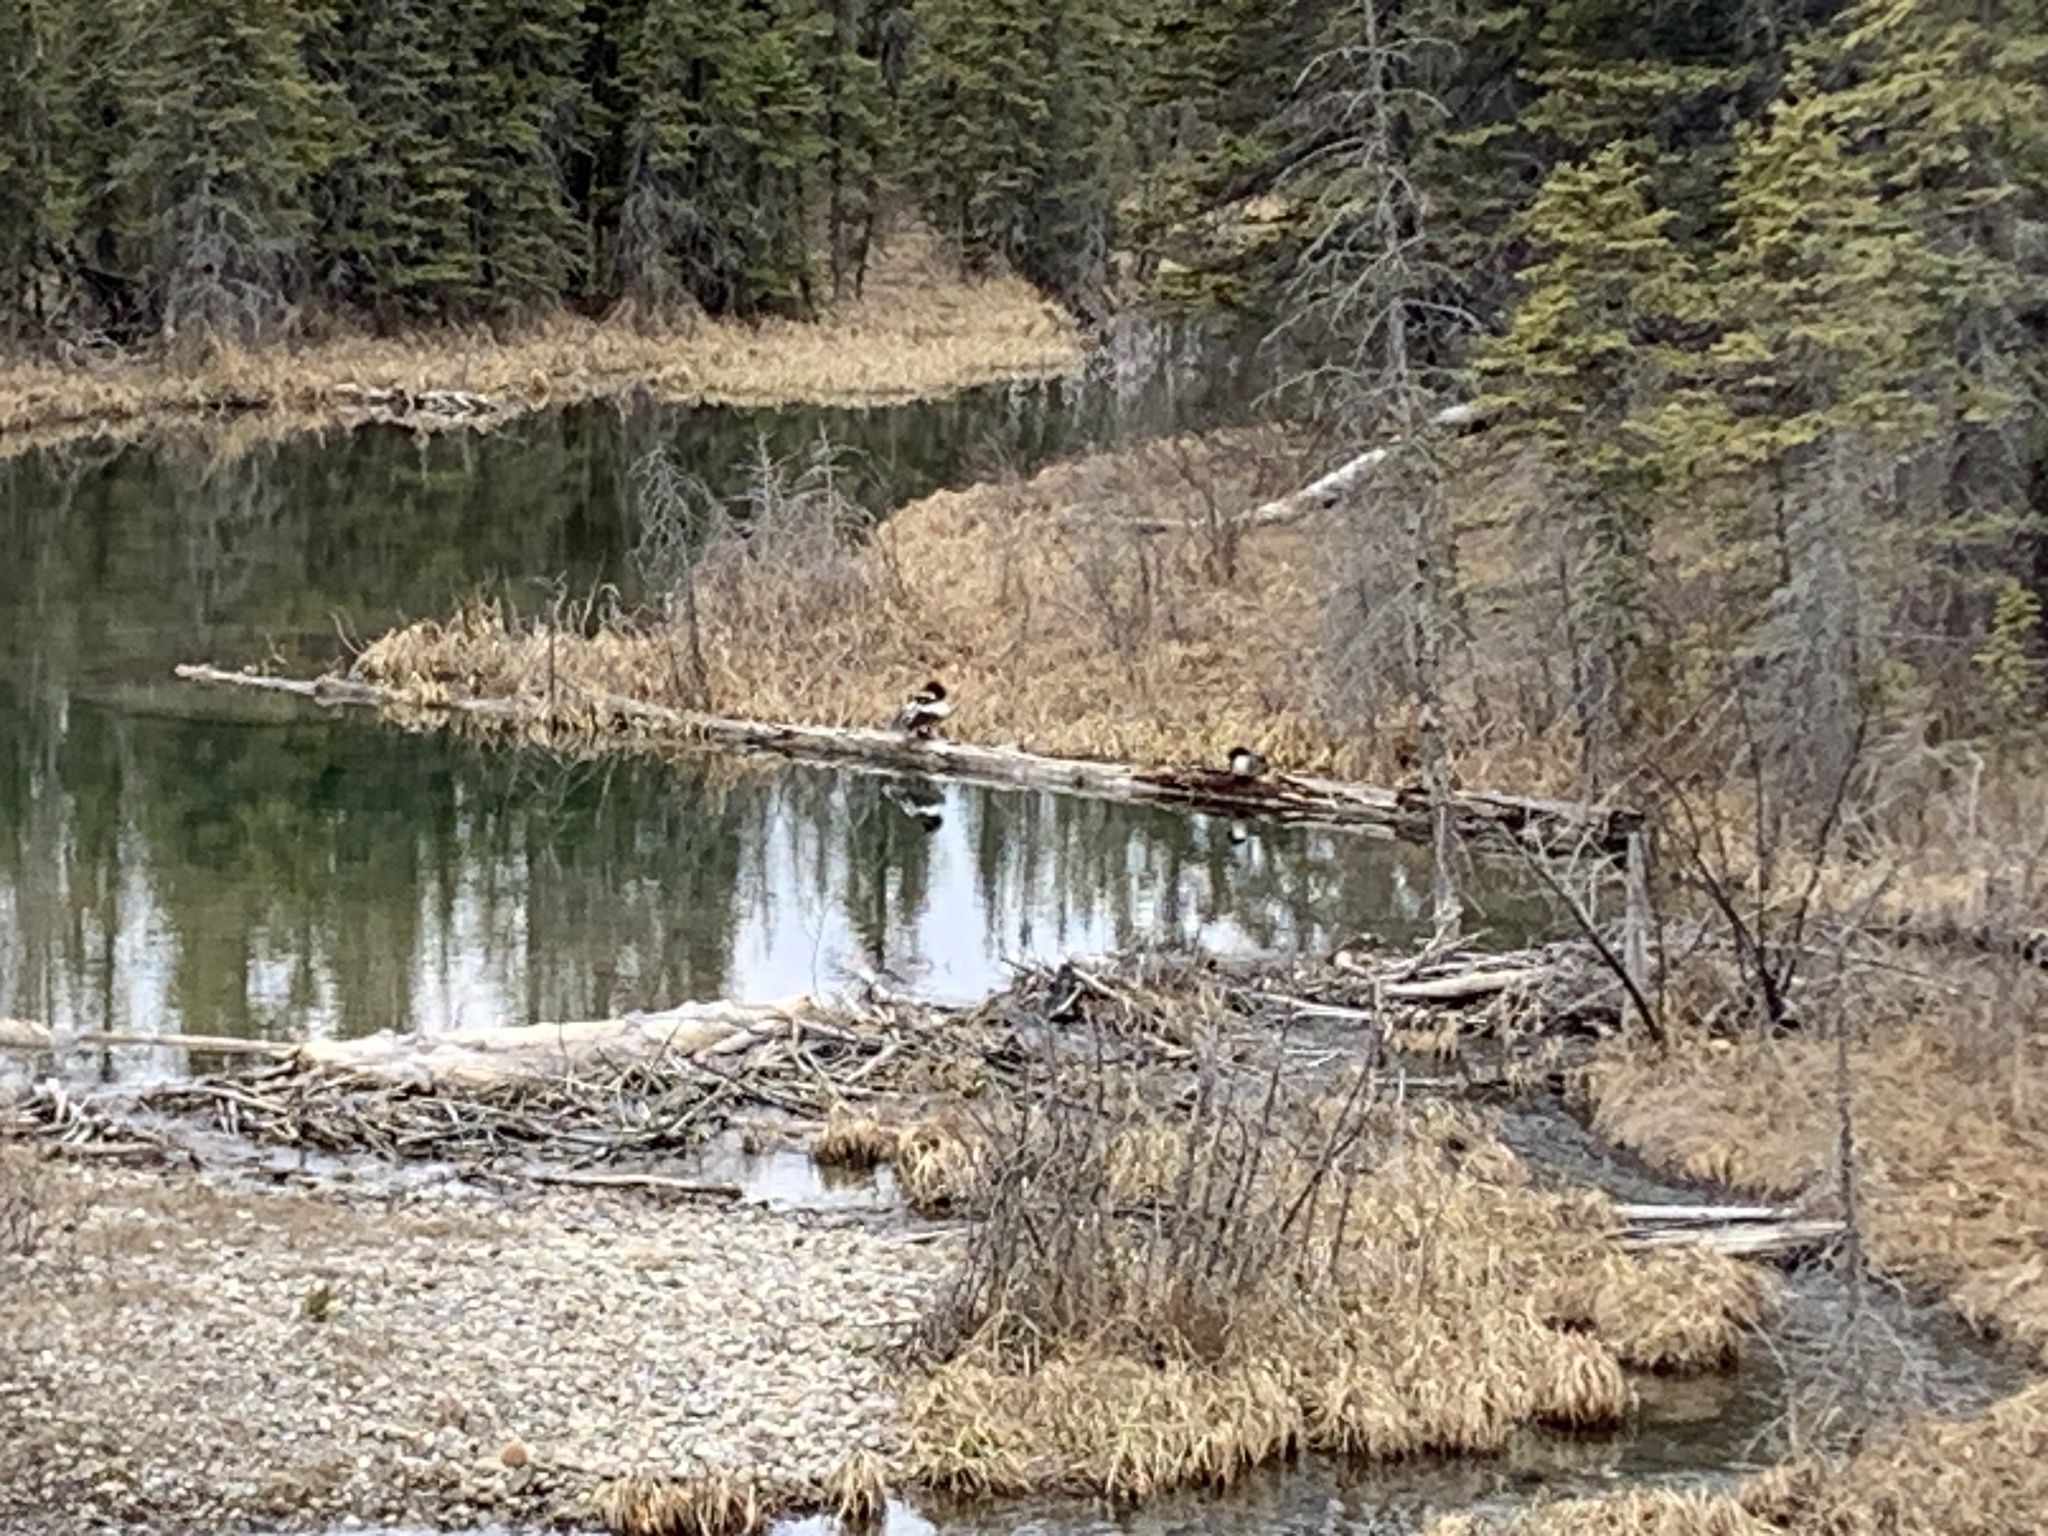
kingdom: Animalia
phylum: Chordata
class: Aves
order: Anseriformes
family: Anatidae
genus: Mergus
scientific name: Mergus merganser
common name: Common merganser
